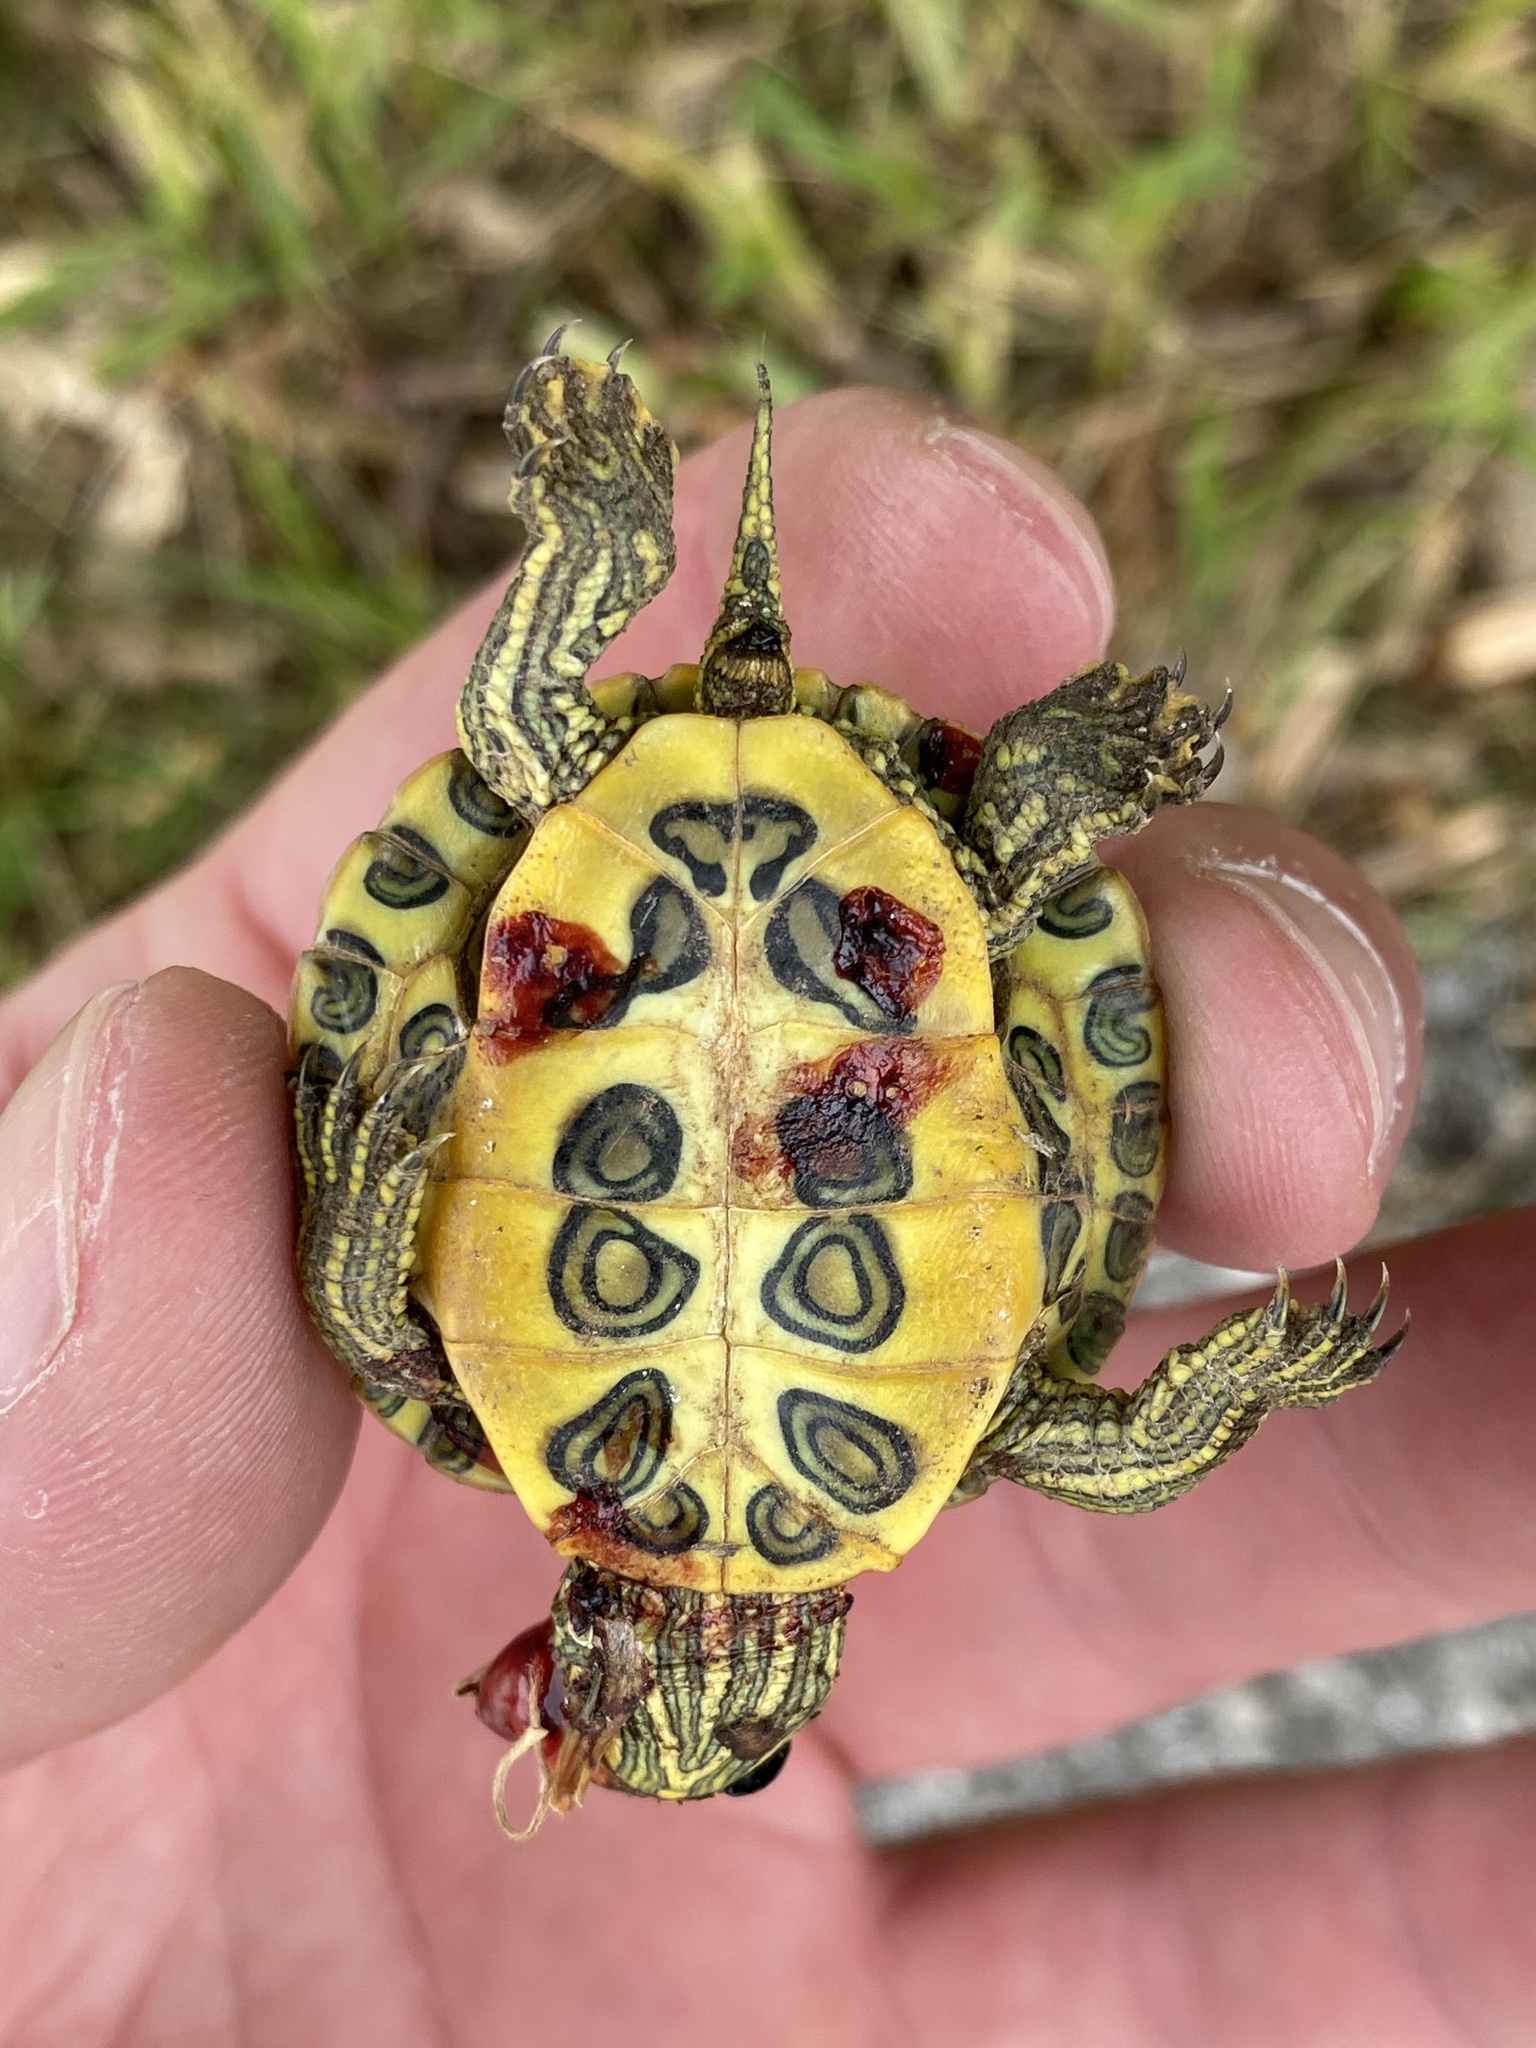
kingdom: Animalia
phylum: Chordata
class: Testudines
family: Emydidae
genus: Trachemys
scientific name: Trachemys scripta
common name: Slider
